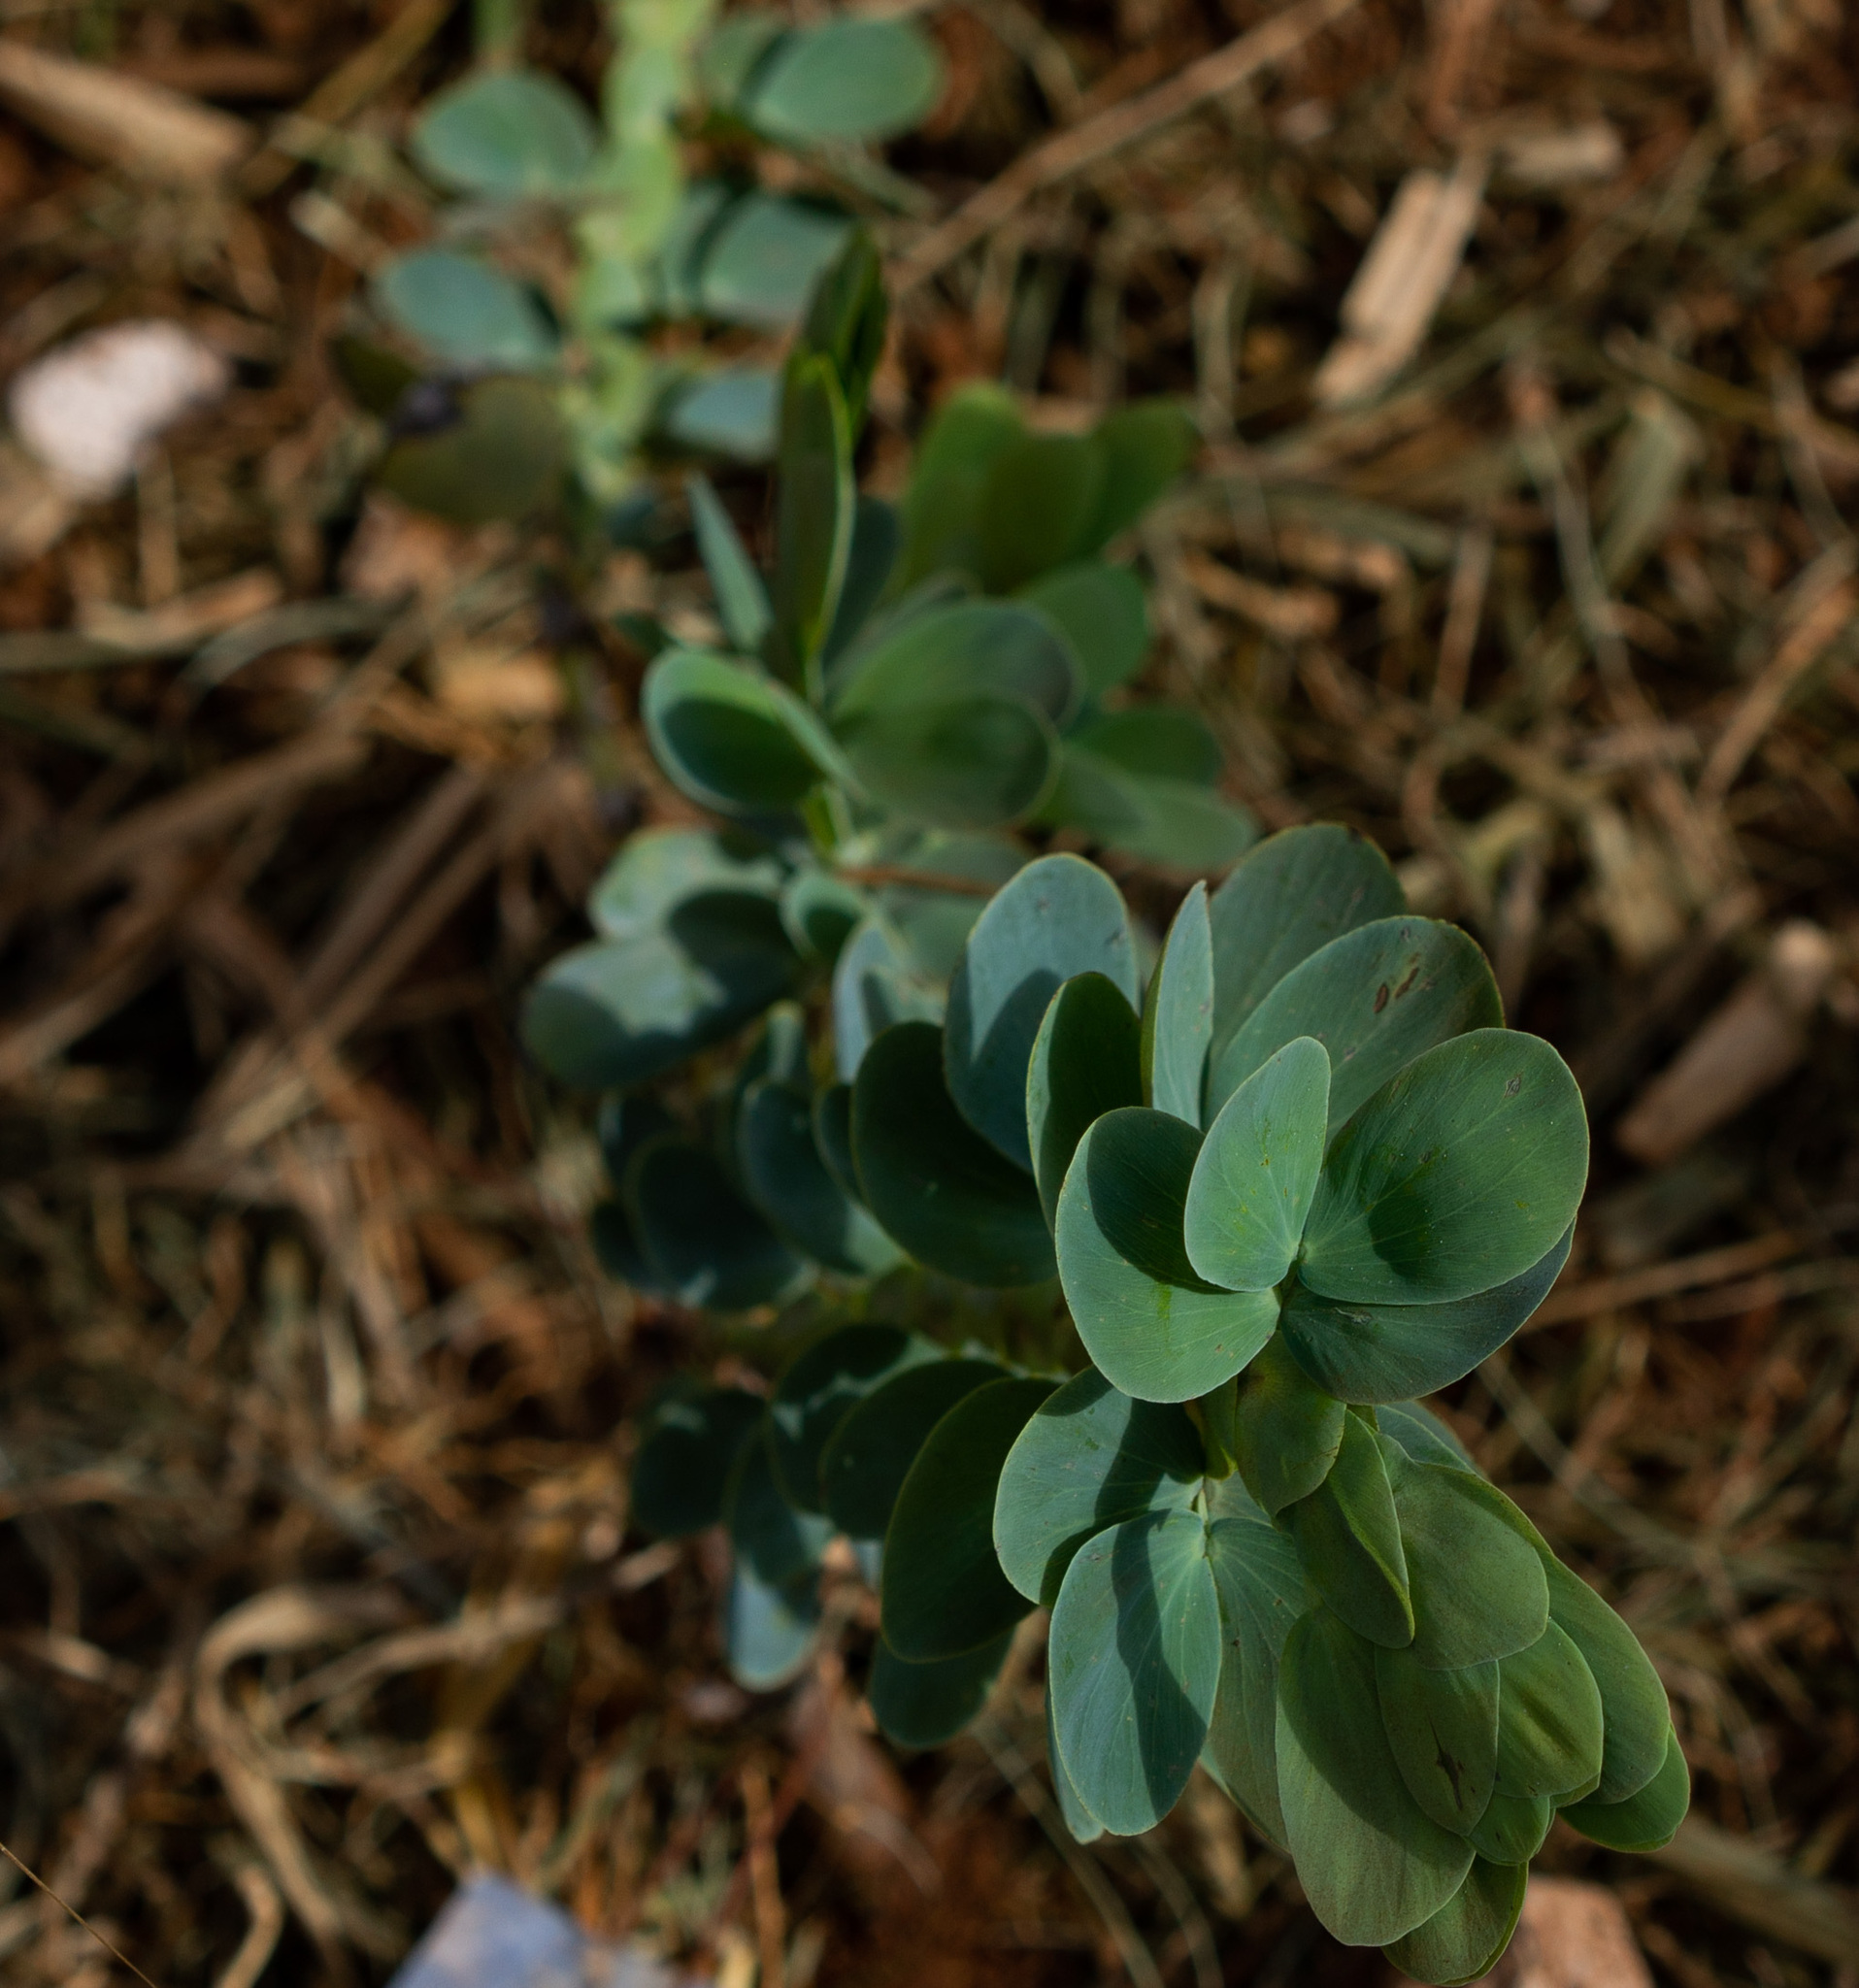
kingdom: Plantae
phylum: Tracheophyta
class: Magnoliopsida
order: Fabales
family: Fabaceae
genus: Chamaecrista
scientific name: Chamaecrista desvauxii
